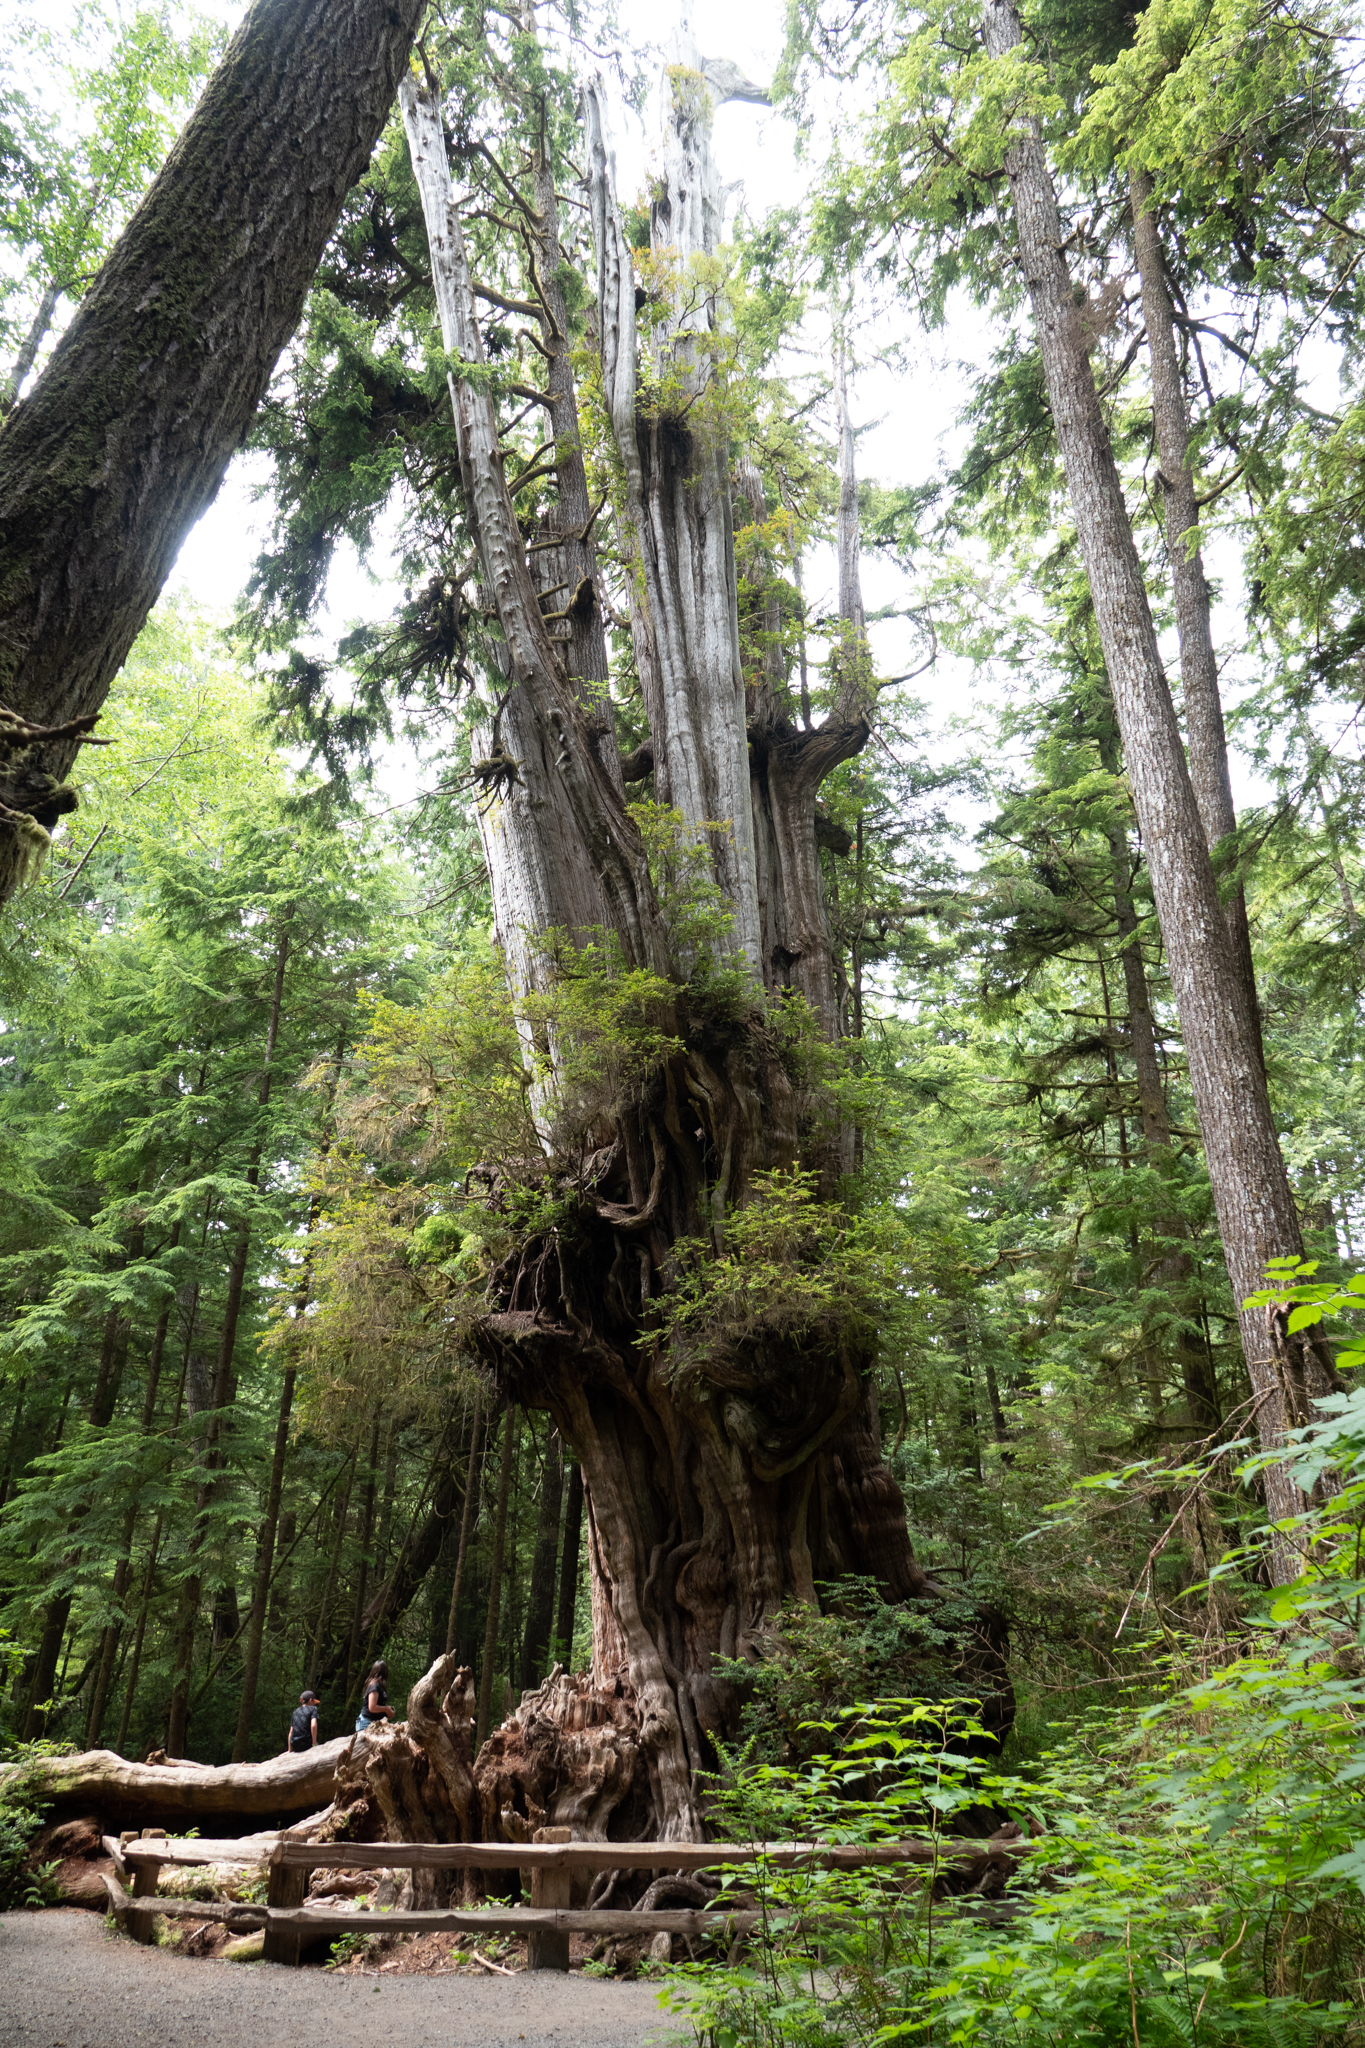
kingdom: Plantae
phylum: Tracheophyta
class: Pinopsida
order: Pinales
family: Cupressaceae
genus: Thuja
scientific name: Thuja plicata
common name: Western red-cedar
